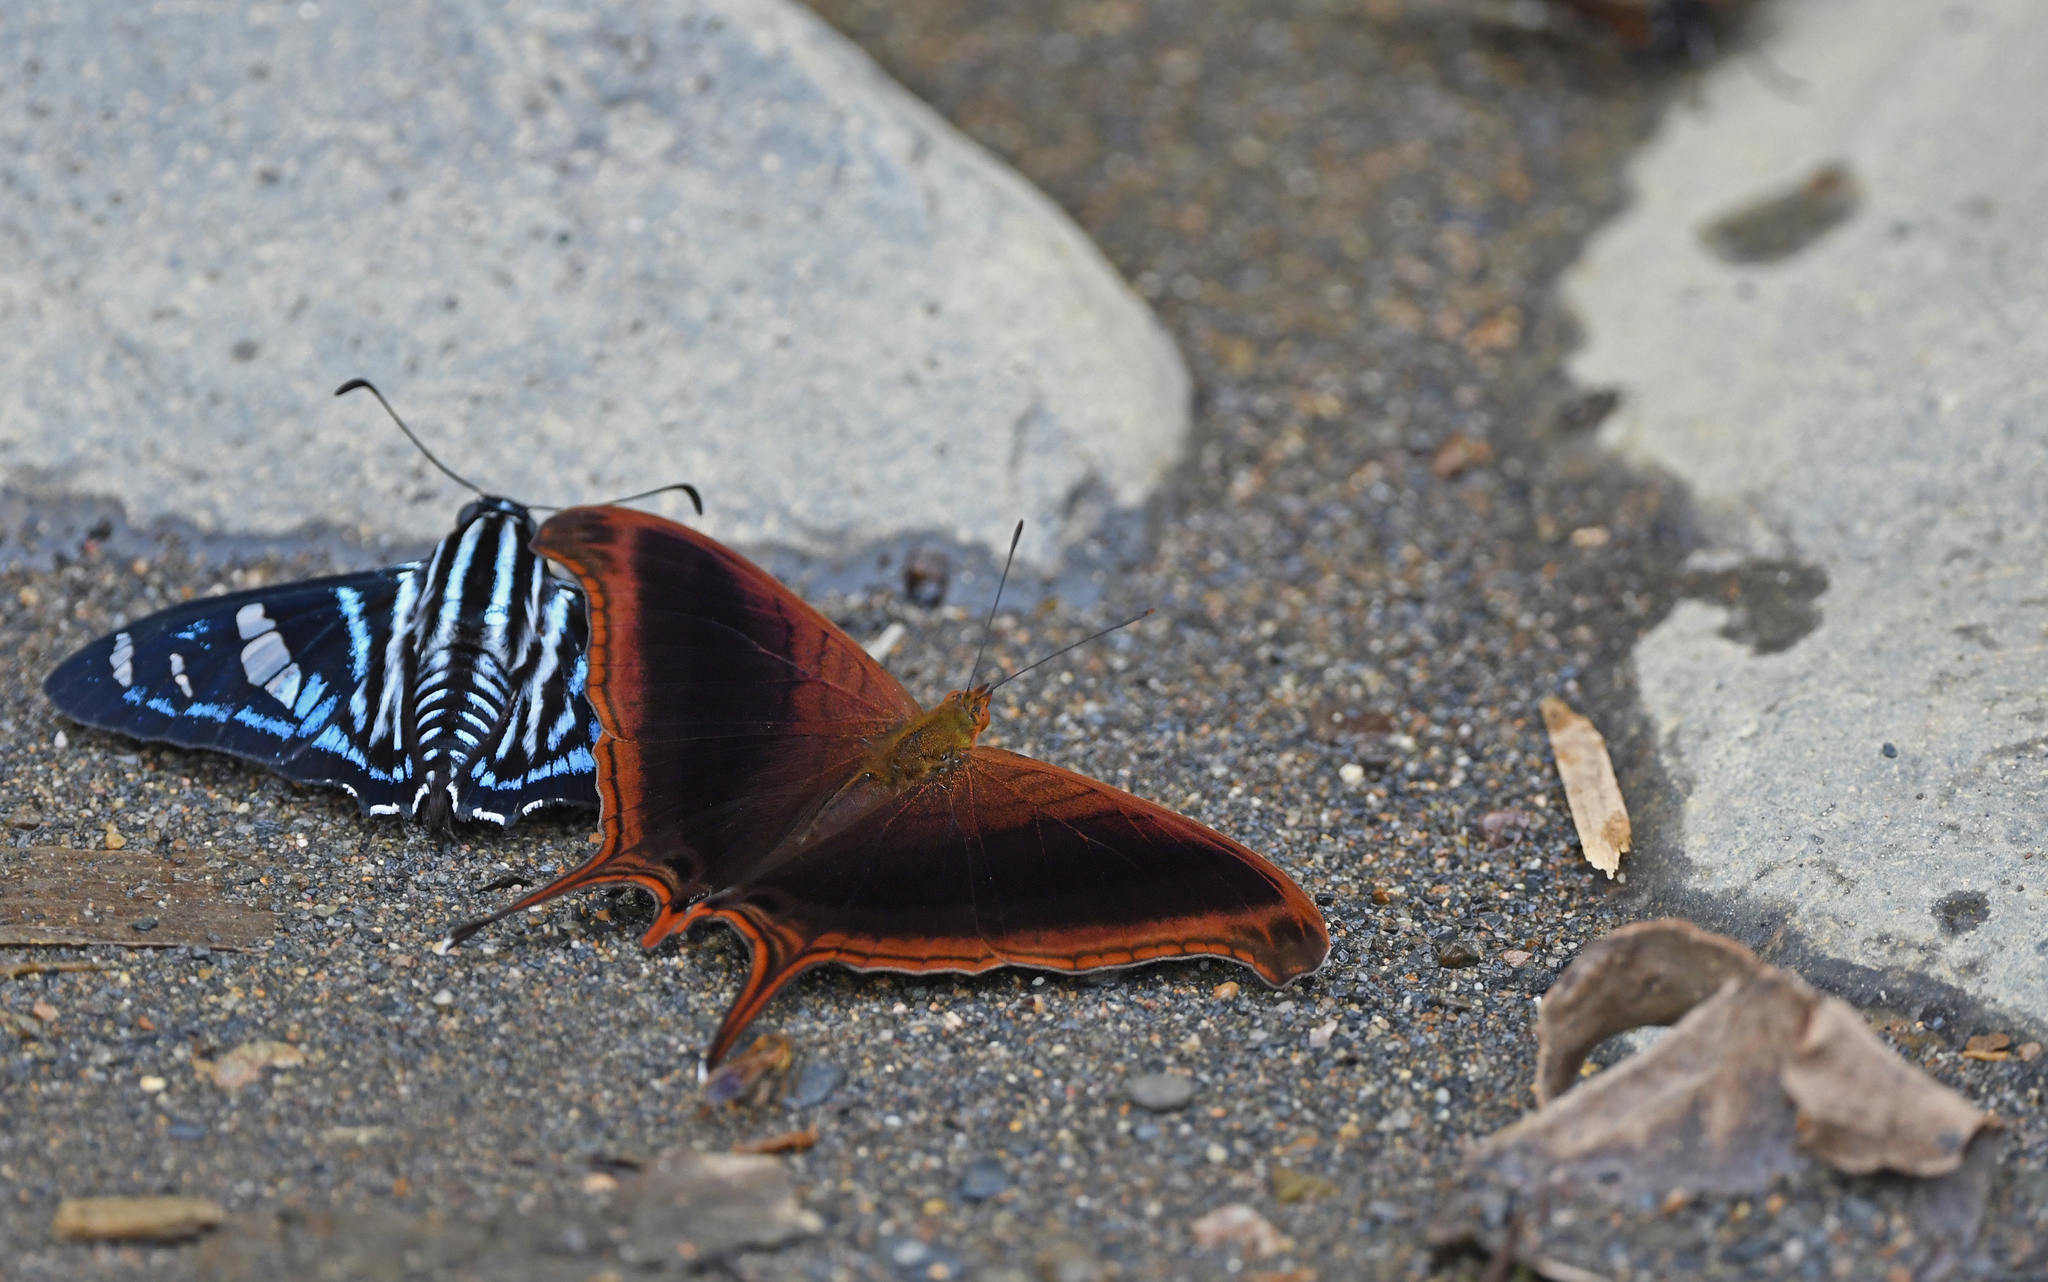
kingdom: Animalia
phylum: Arthropoda
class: Insecta
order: Lepidoptera
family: Nymphalidae
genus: Marpesia
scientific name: Marpesia zerynthia
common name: Waiter daggerwing
